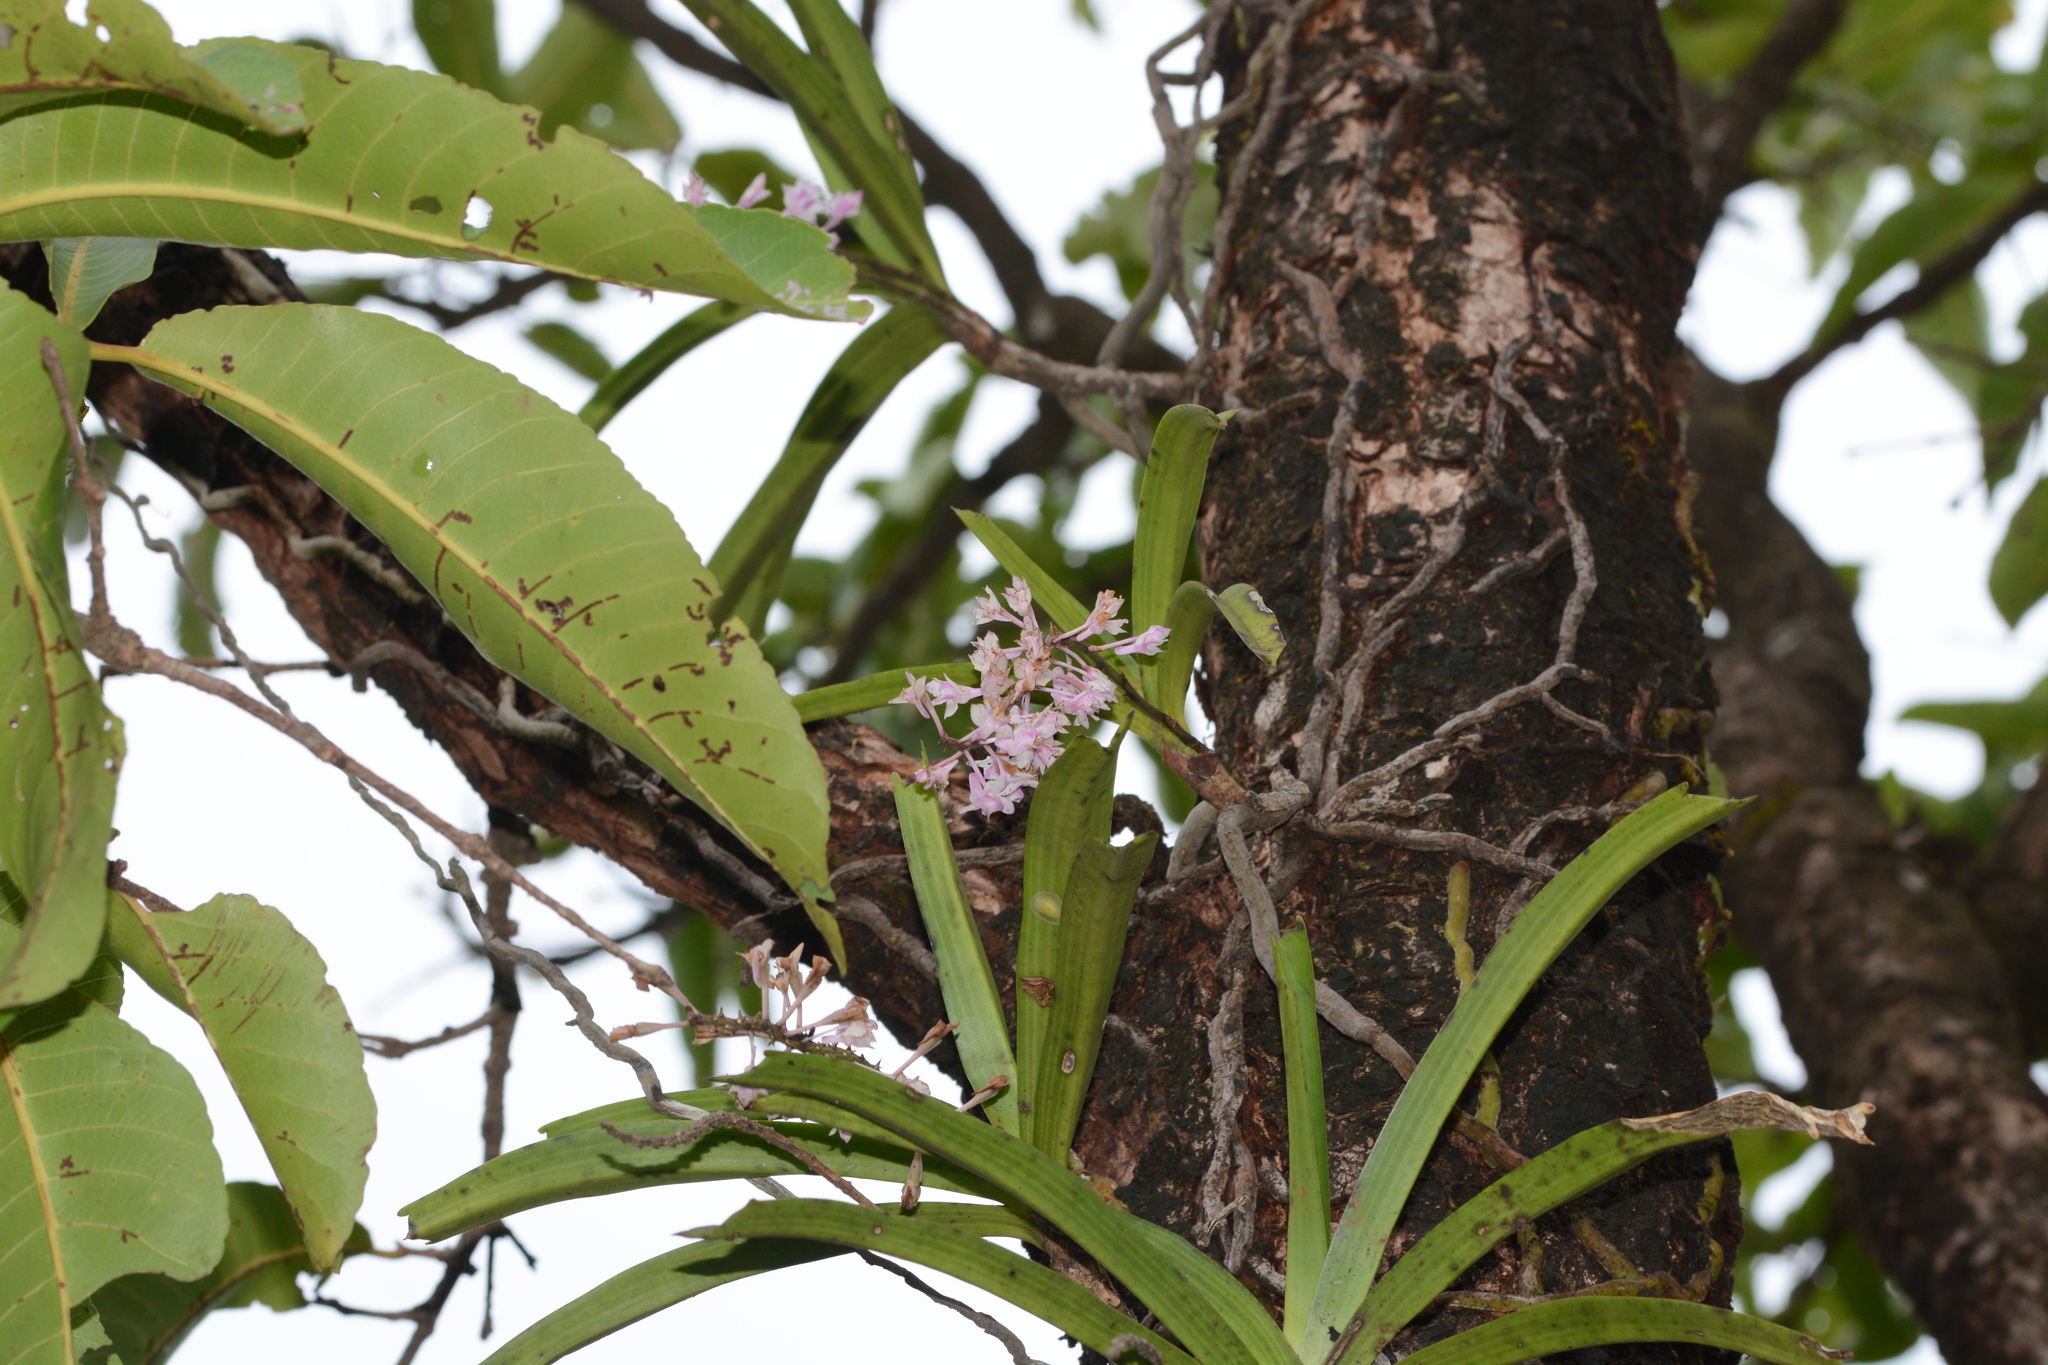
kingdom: Plantae
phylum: Tracheophyta
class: Liliopsida
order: Asparagales
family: Orchidaceae
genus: Aerides
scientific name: Aerides rosea
